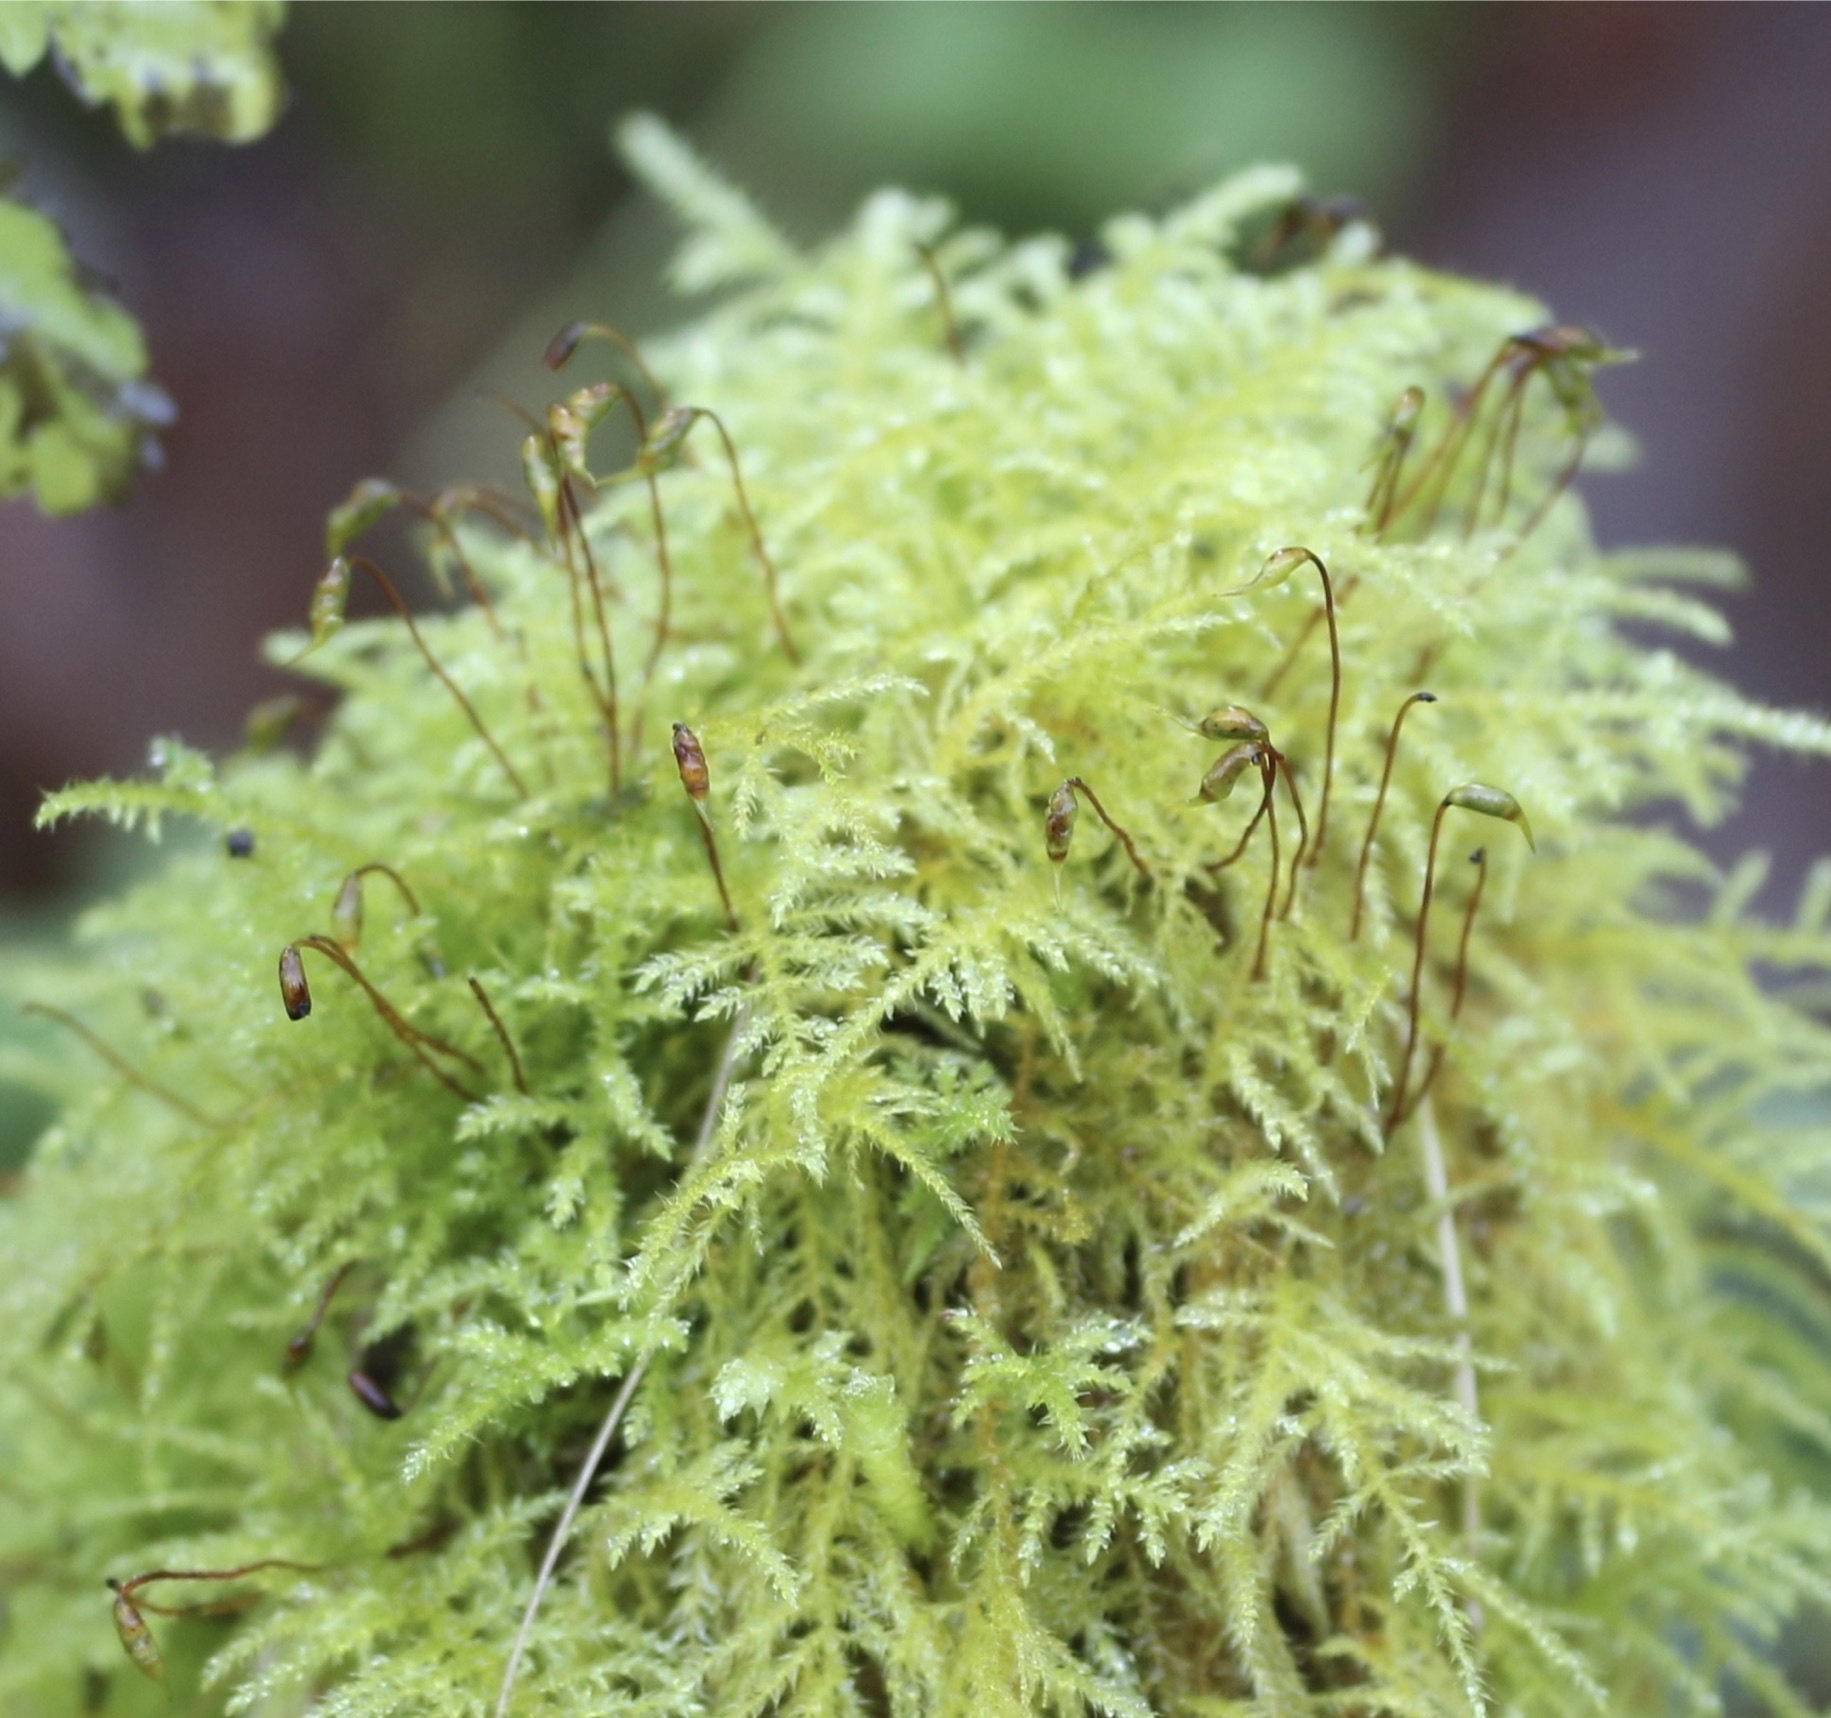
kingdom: Plantae
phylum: Bryophyta
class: Bryopsida
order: Hypnales
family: Brachytheciaceae
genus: Kindbergia
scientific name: Kindbergia praelonga
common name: Slender beaked moss
